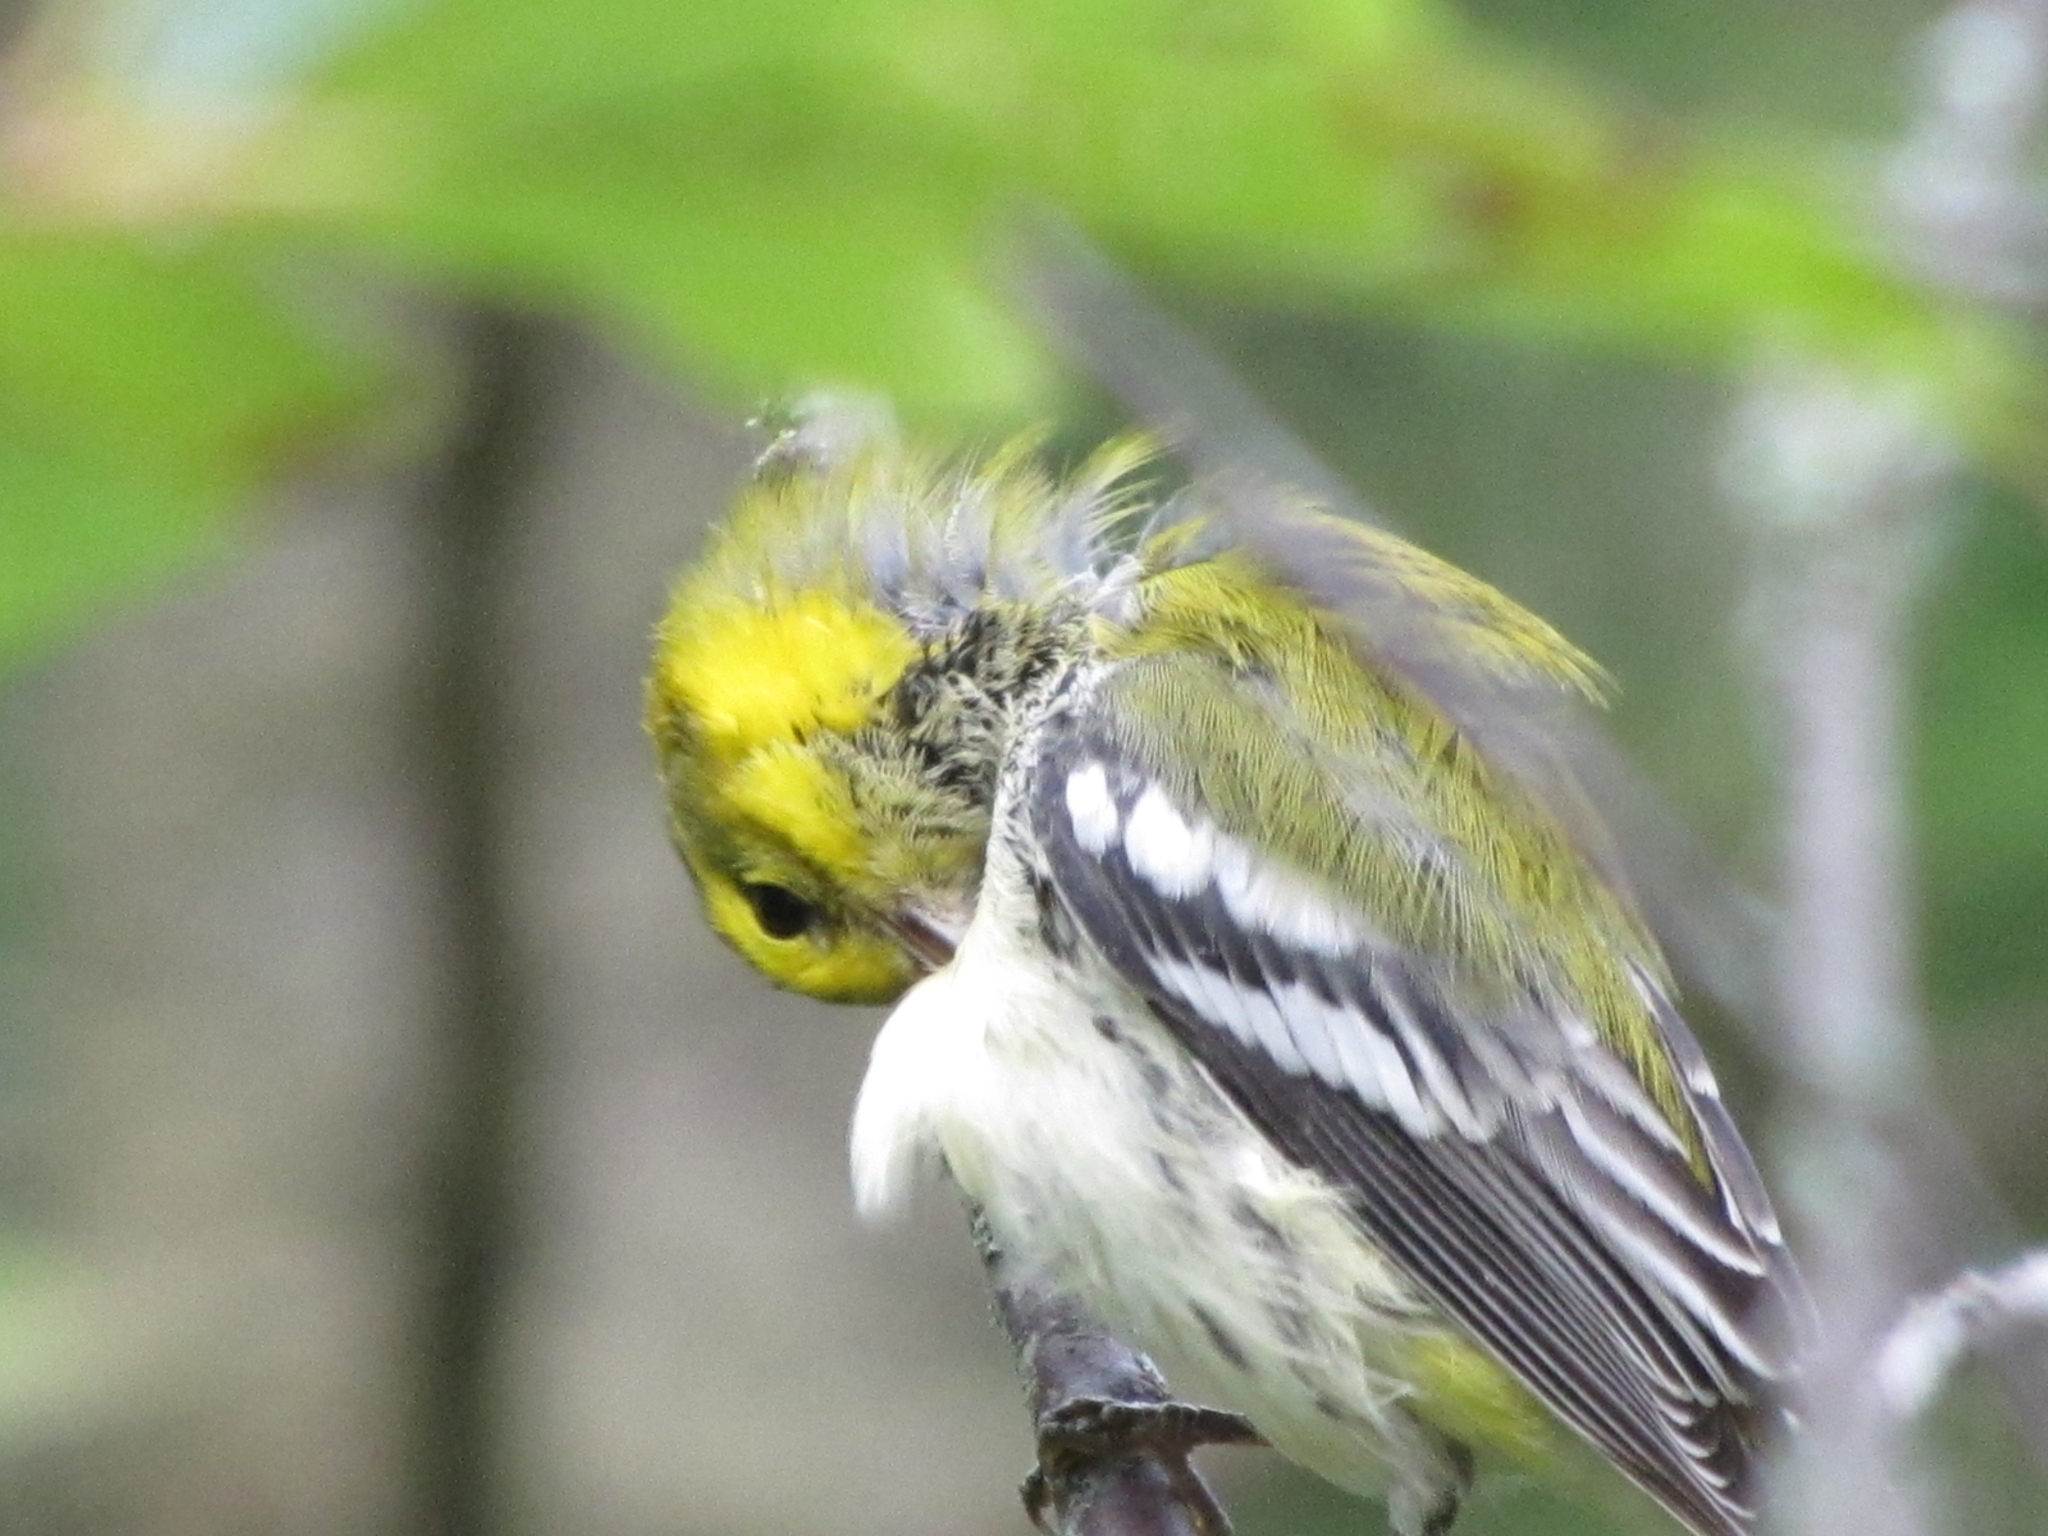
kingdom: Animalia
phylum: Chordata
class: Aves
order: Passeriformes
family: Parulidae
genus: Setophaga
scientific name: Setophaga virens
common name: Black-throated green warbler
